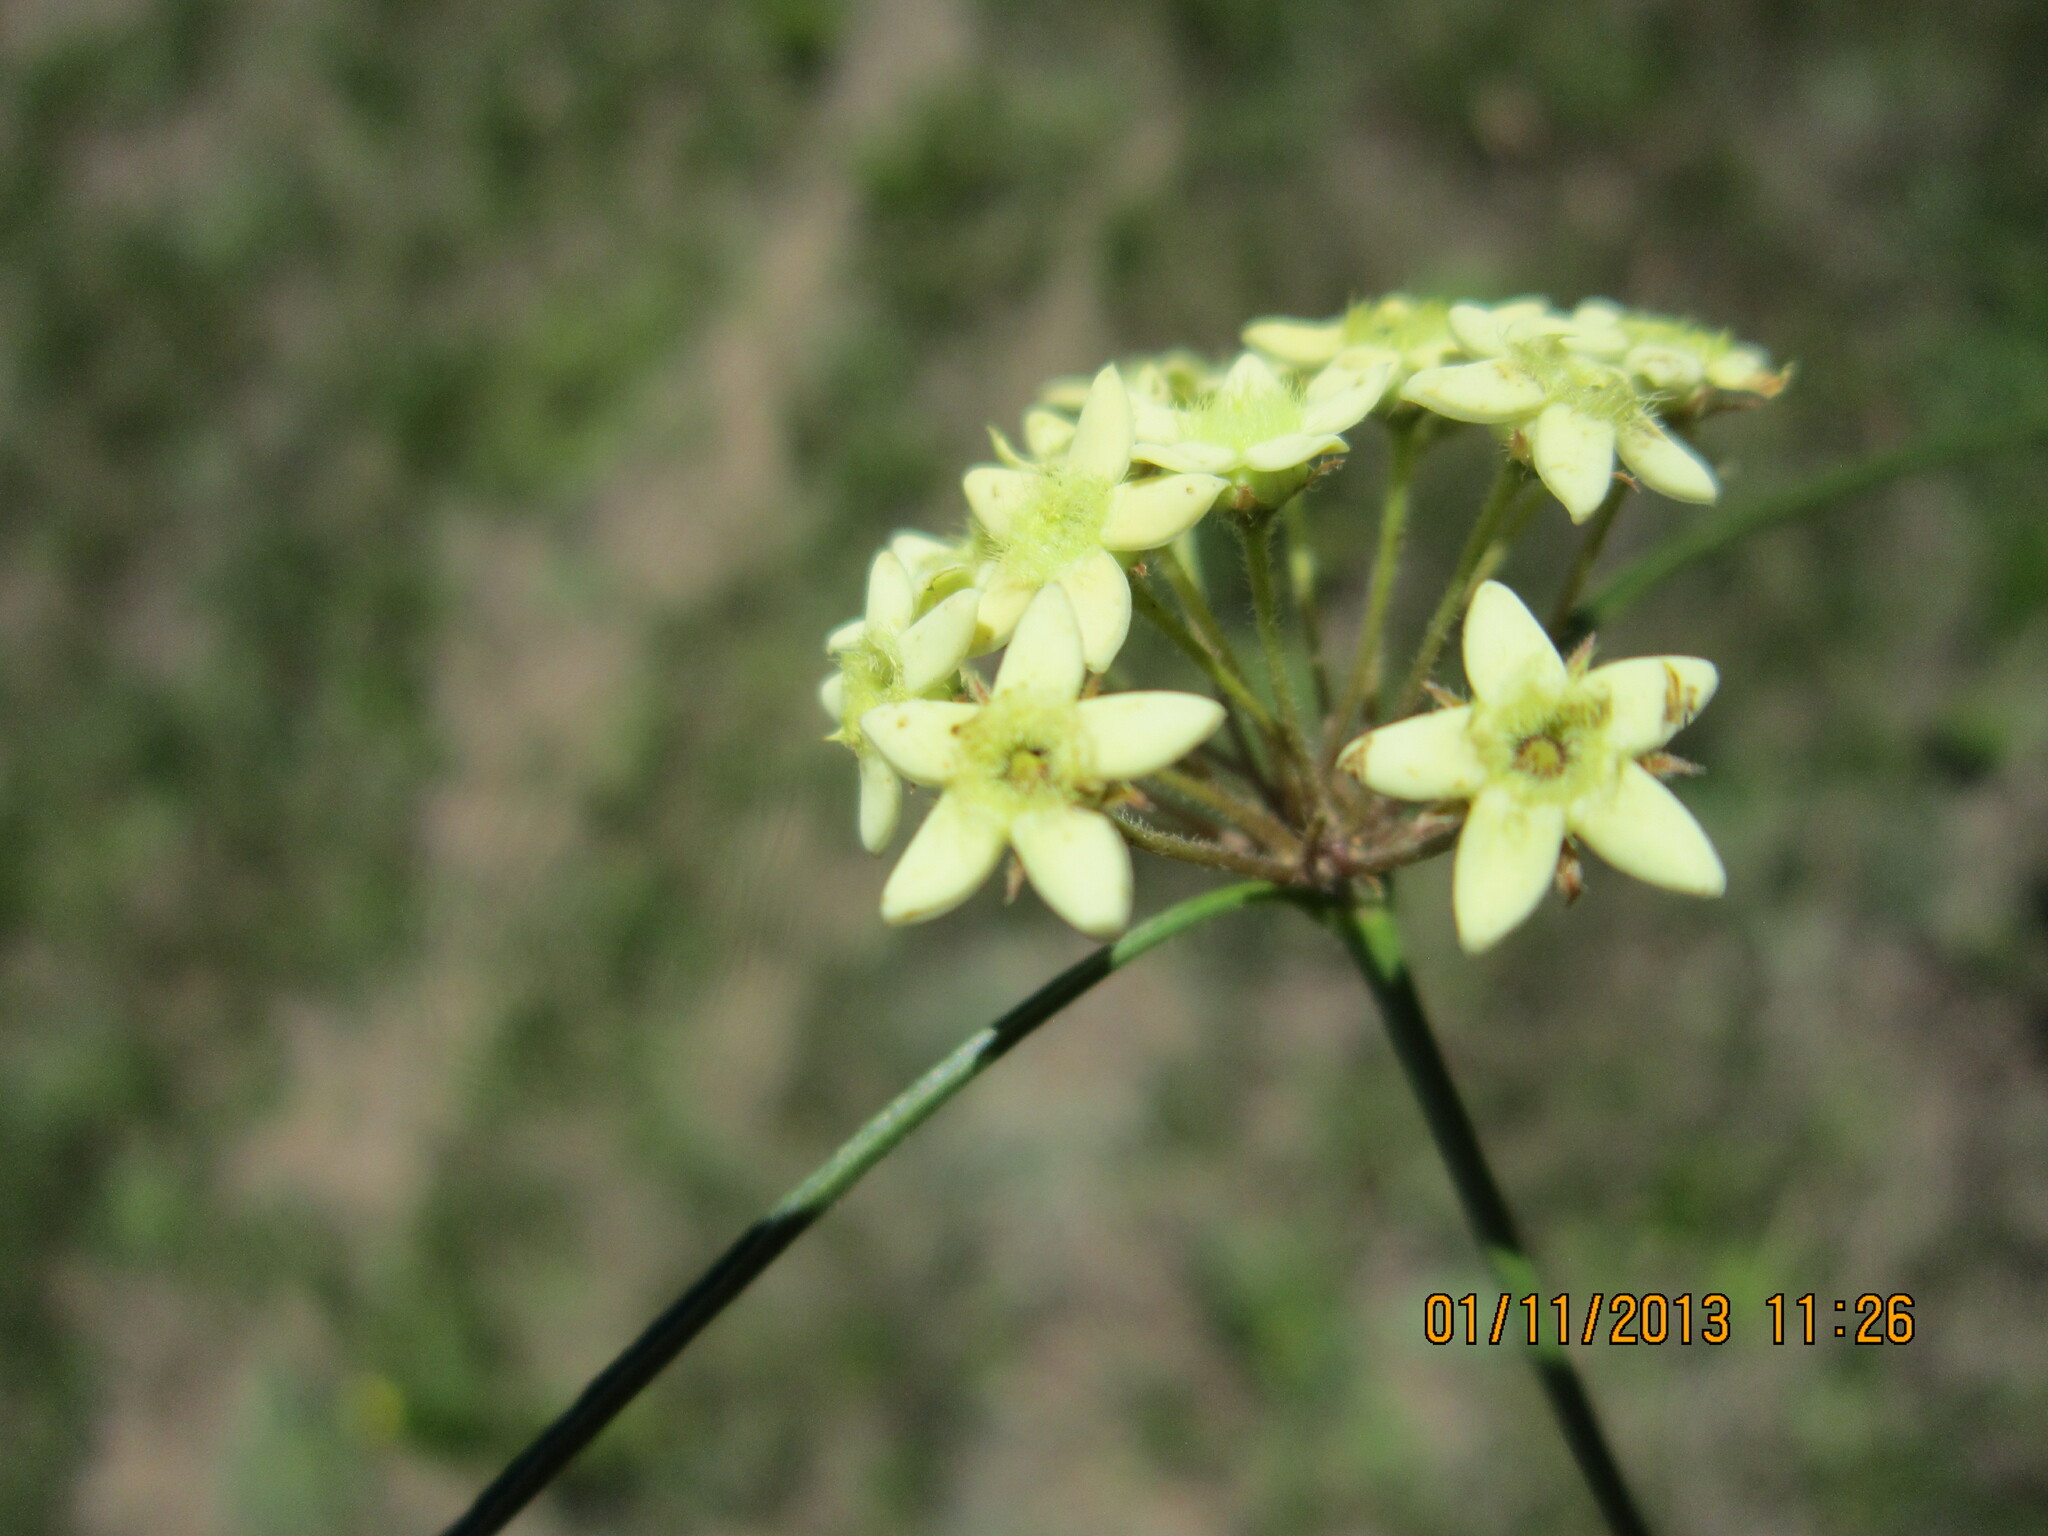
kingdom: Plantae
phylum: Tracheophyta
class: Magnoliopsida
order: Gentianales
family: Apocynaceae
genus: Sisyranthus
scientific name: Sisyranthus trichostomus
